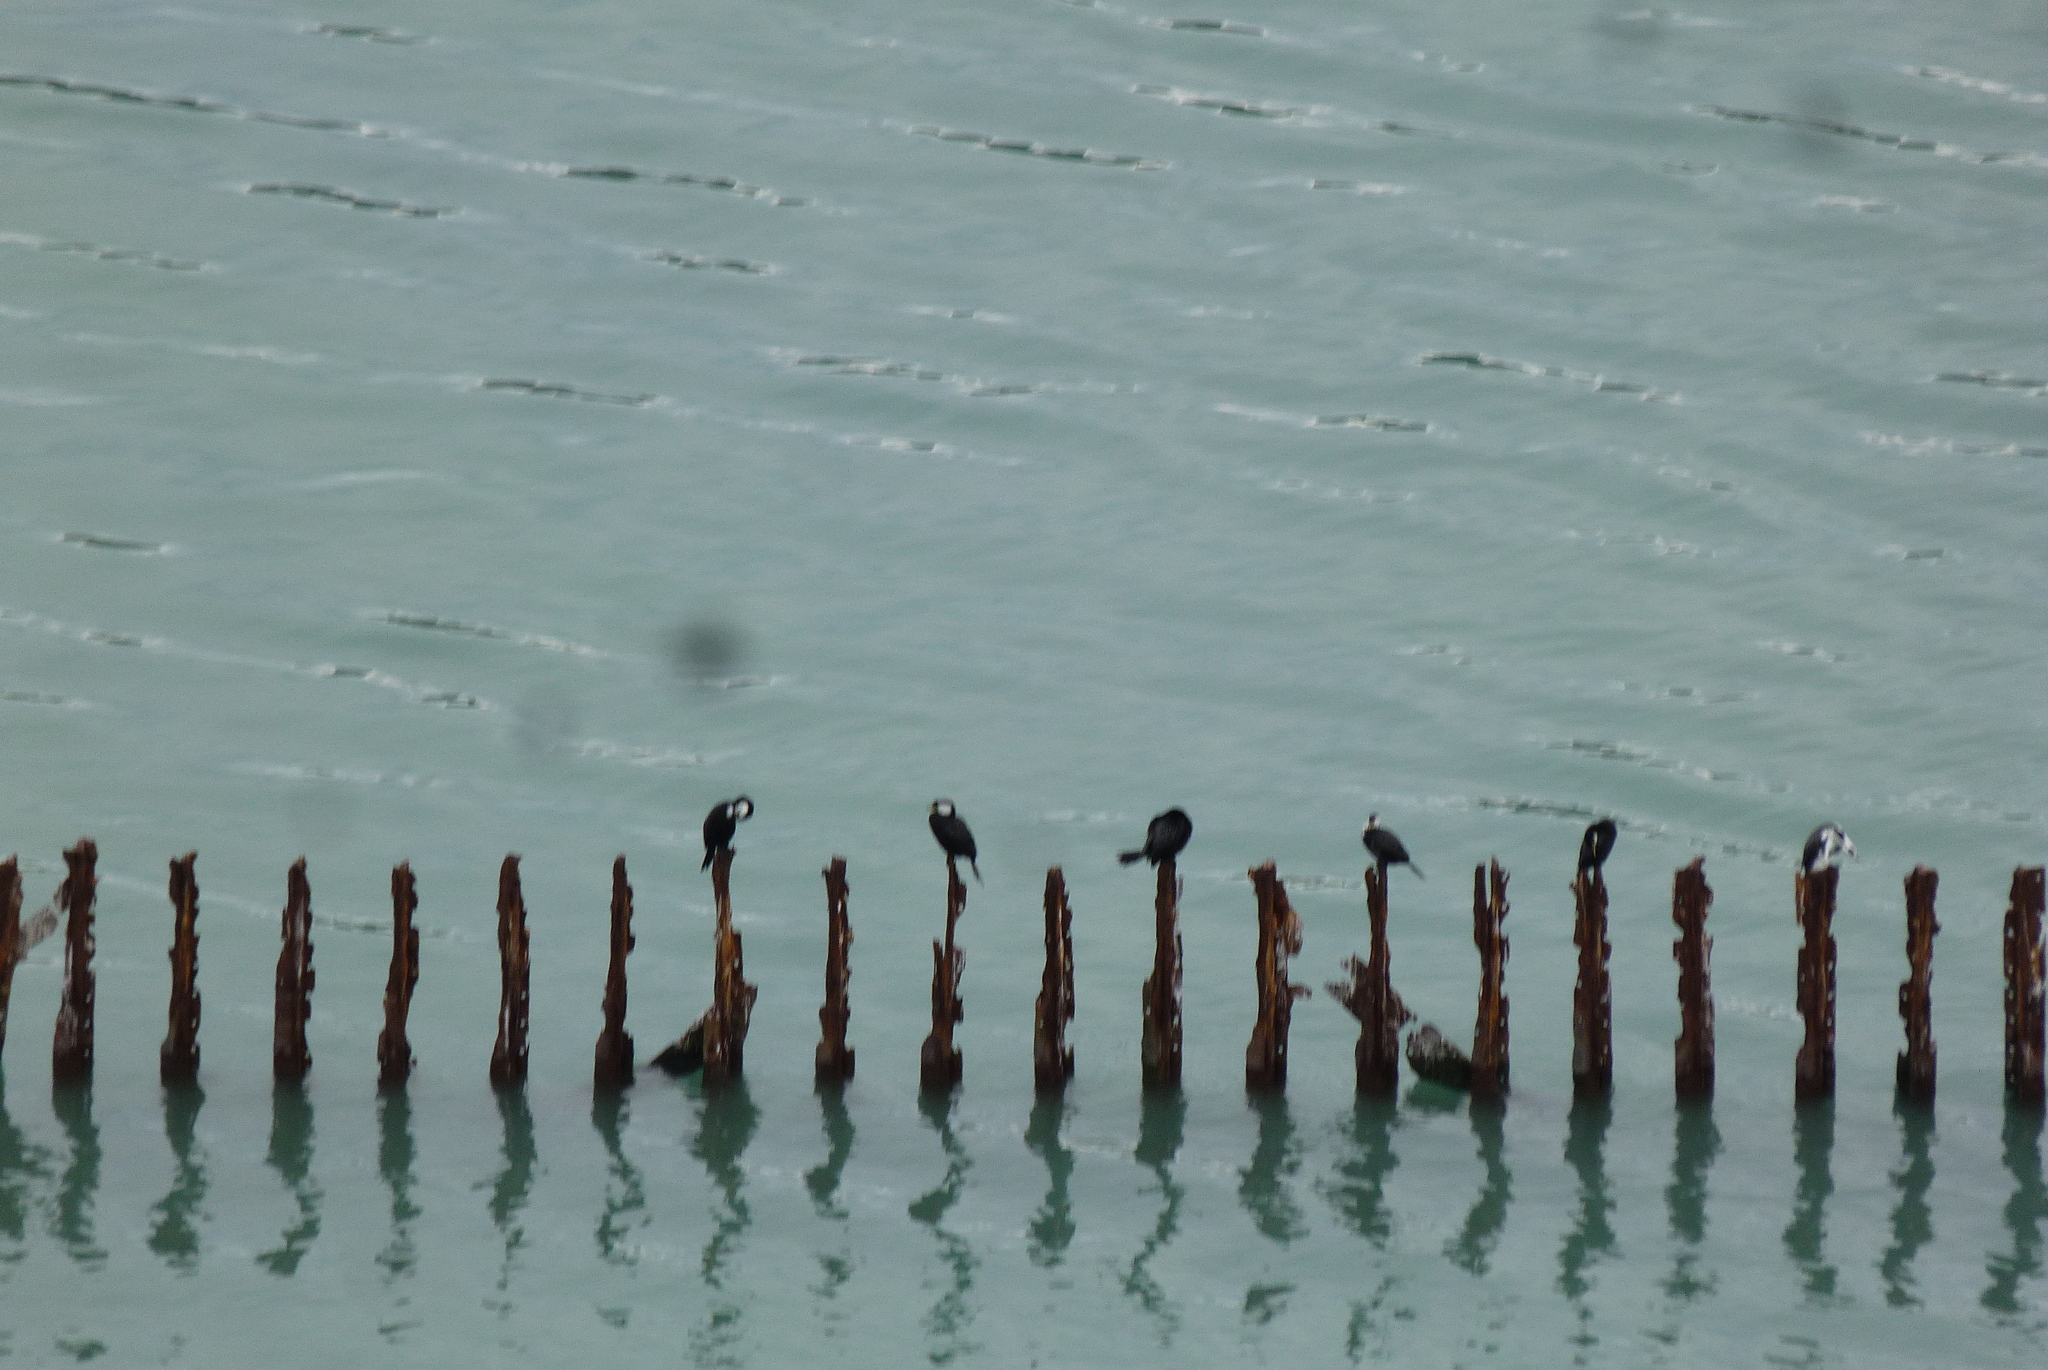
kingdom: Animalia
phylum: Chordata
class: Aves
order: Suliformes
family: Phalacrocoracidae
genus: Microcarbo
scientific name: Microcarbo melanoleucos
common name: Little pied cormorant
